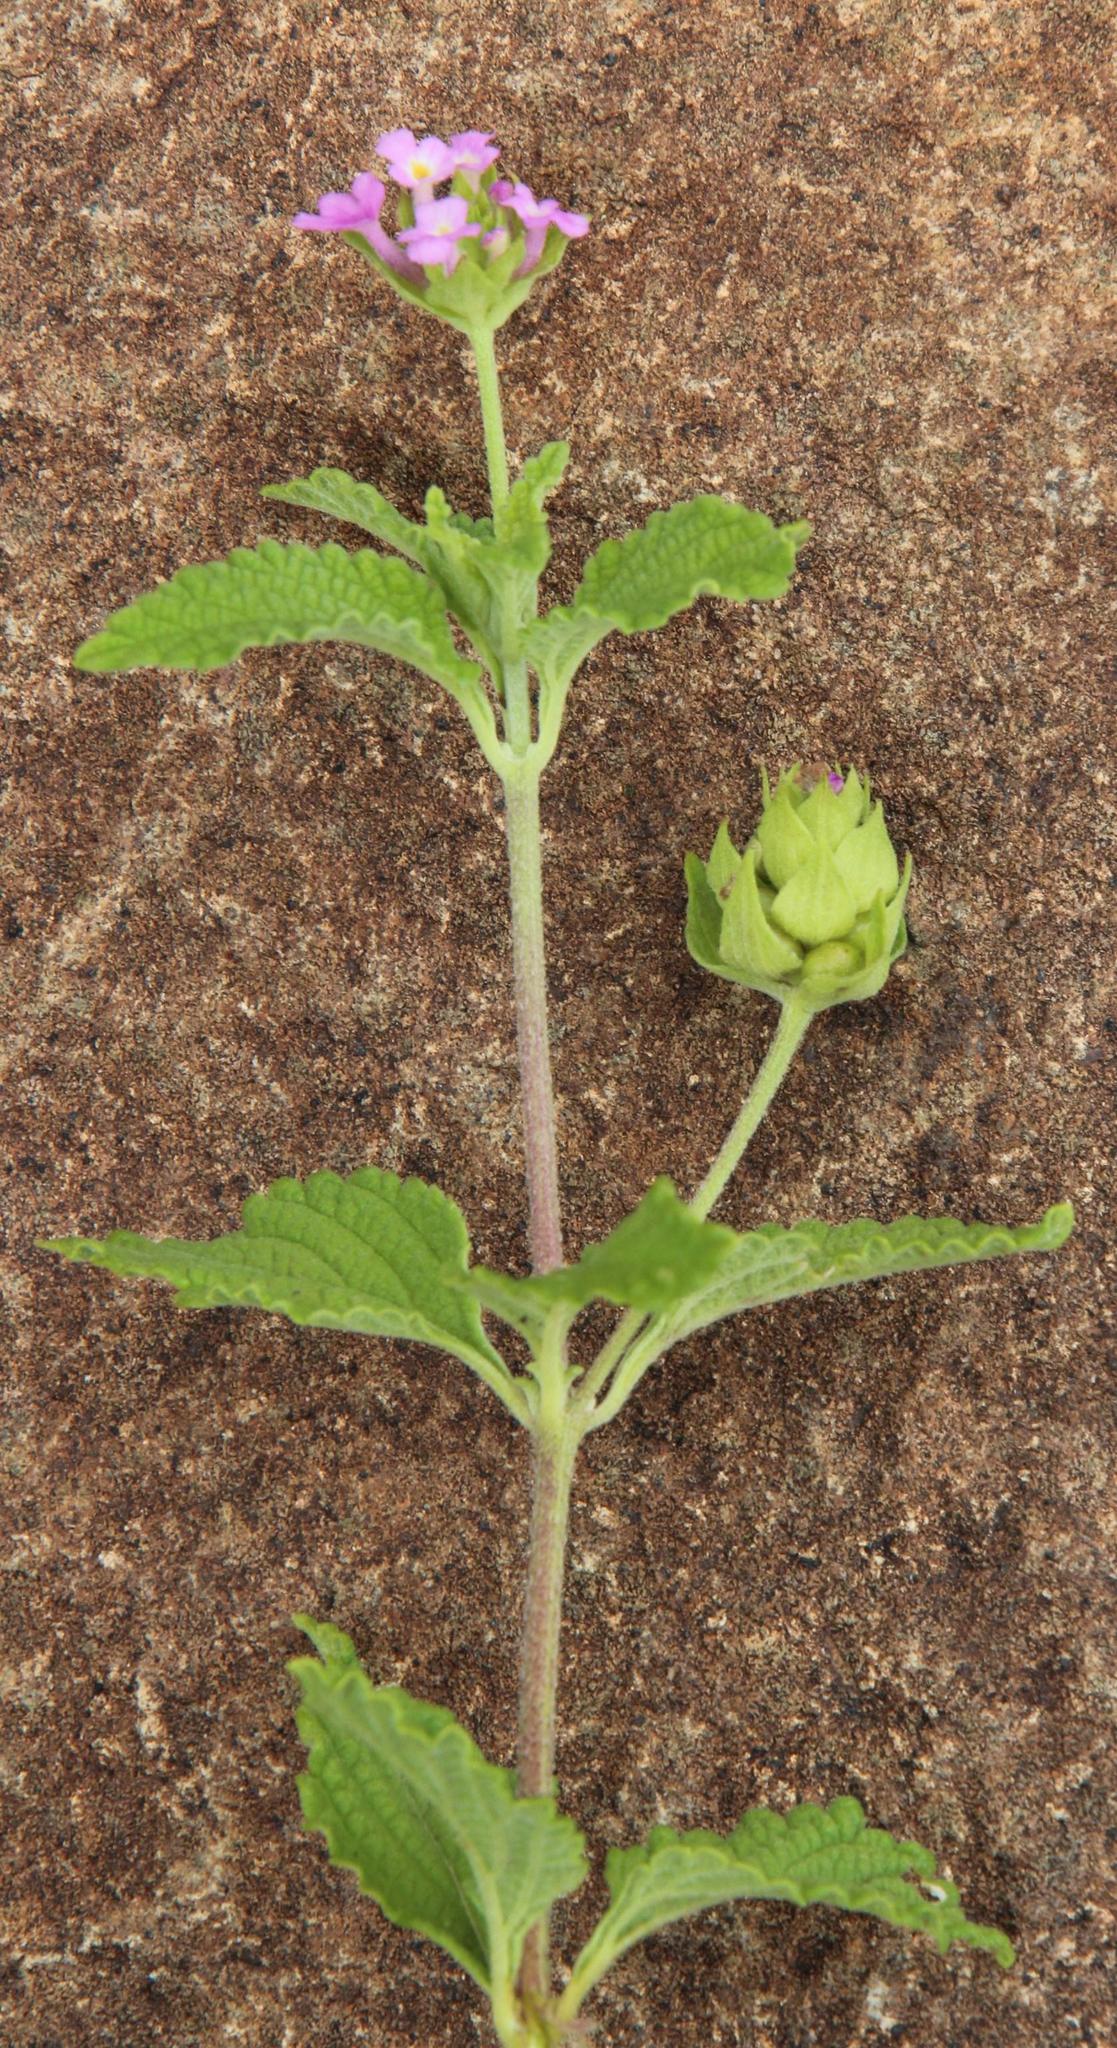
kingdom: Plantae
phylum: Tracheophyta
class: Magnoliopsida
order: Lamiales
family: Verbenaceae
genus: Lantana
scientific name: Lantana rugosa
